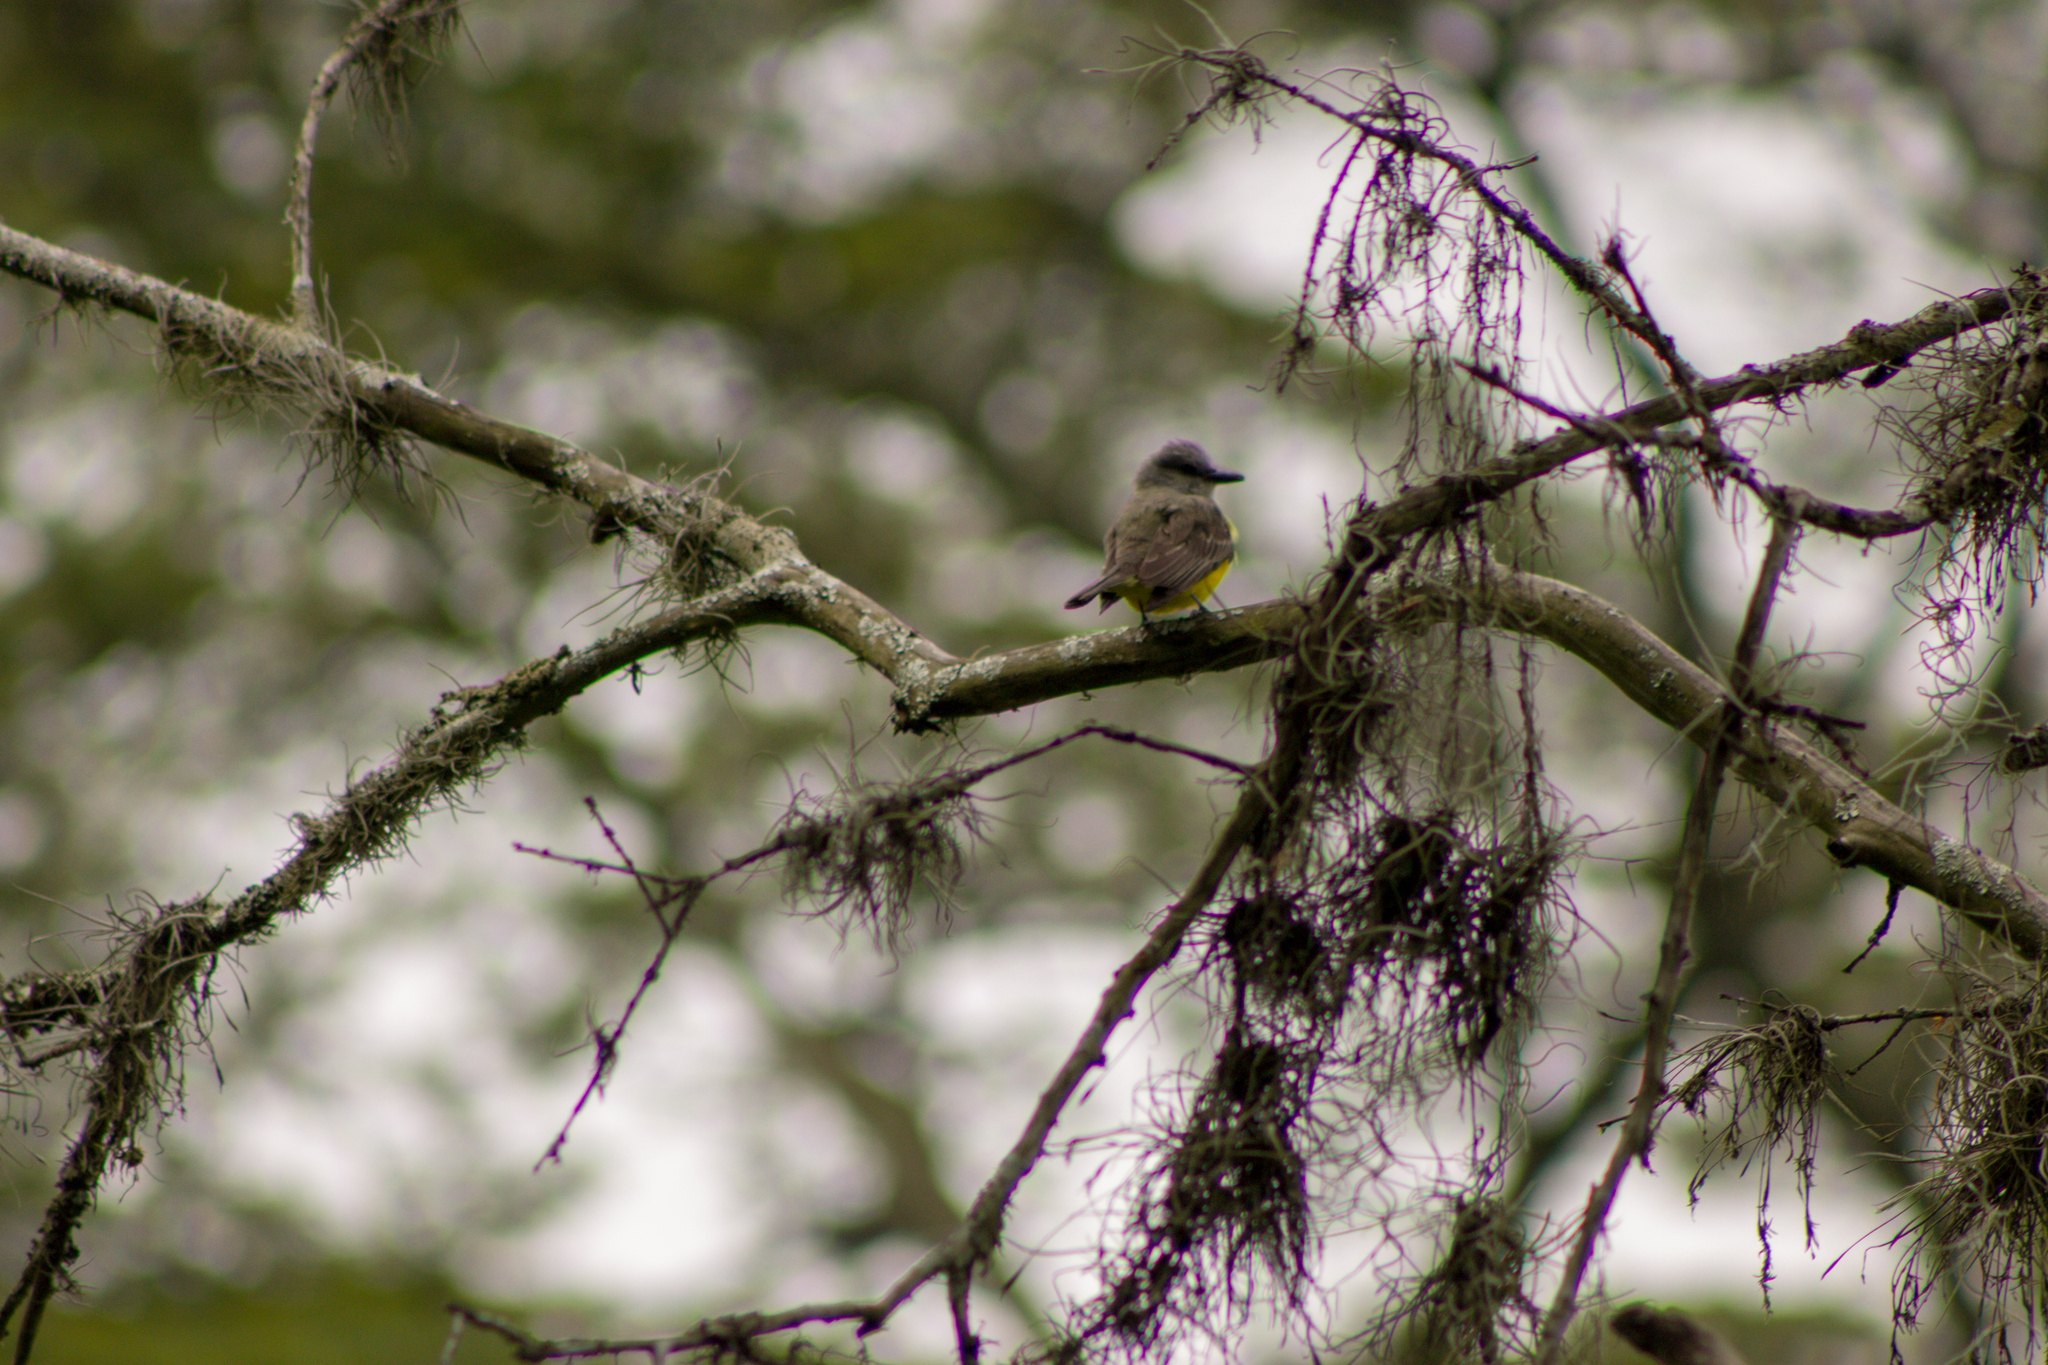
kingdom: Animalia
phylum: Chordata
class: Aves
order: Passeriformes
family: Tyrannidae
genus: Tyrannus
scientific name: Tyrannus melancholicus
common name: Tropical kingbird
